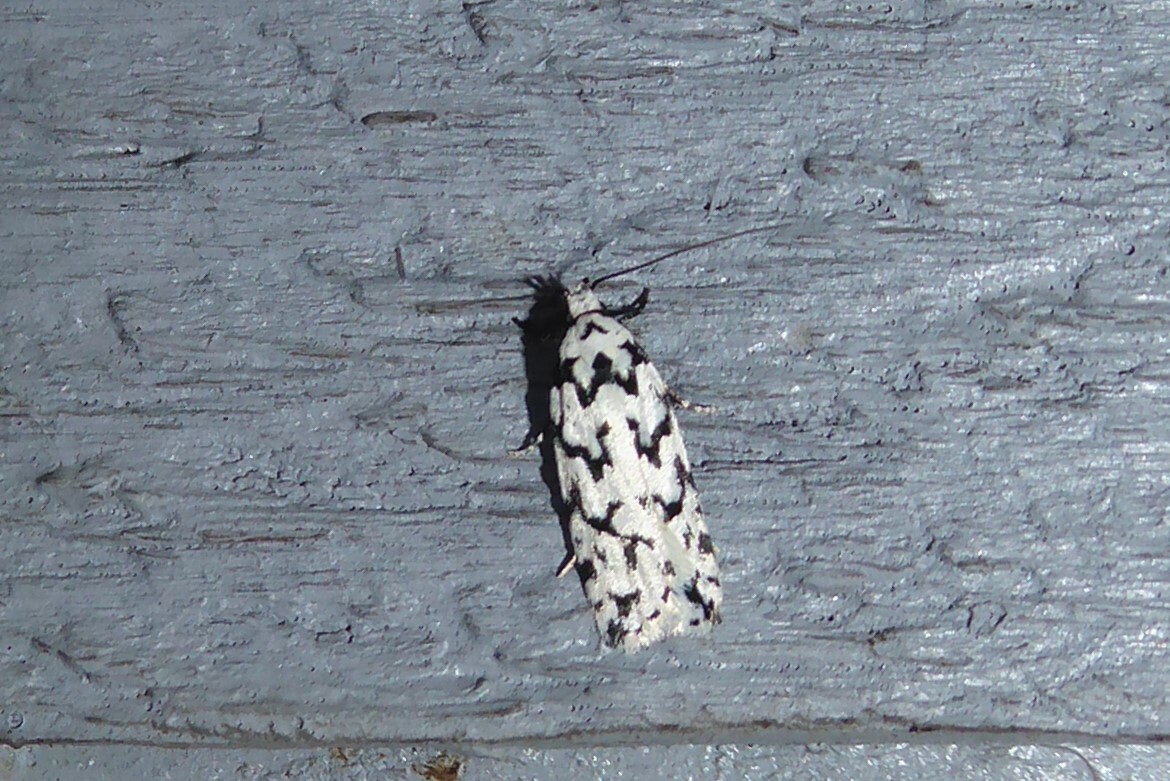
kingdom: Animalia
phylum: Arthropoda
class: Insecta
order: Lepidoptera
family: Oecophoridae
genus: Izatha
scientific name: Izatha katadiktya
